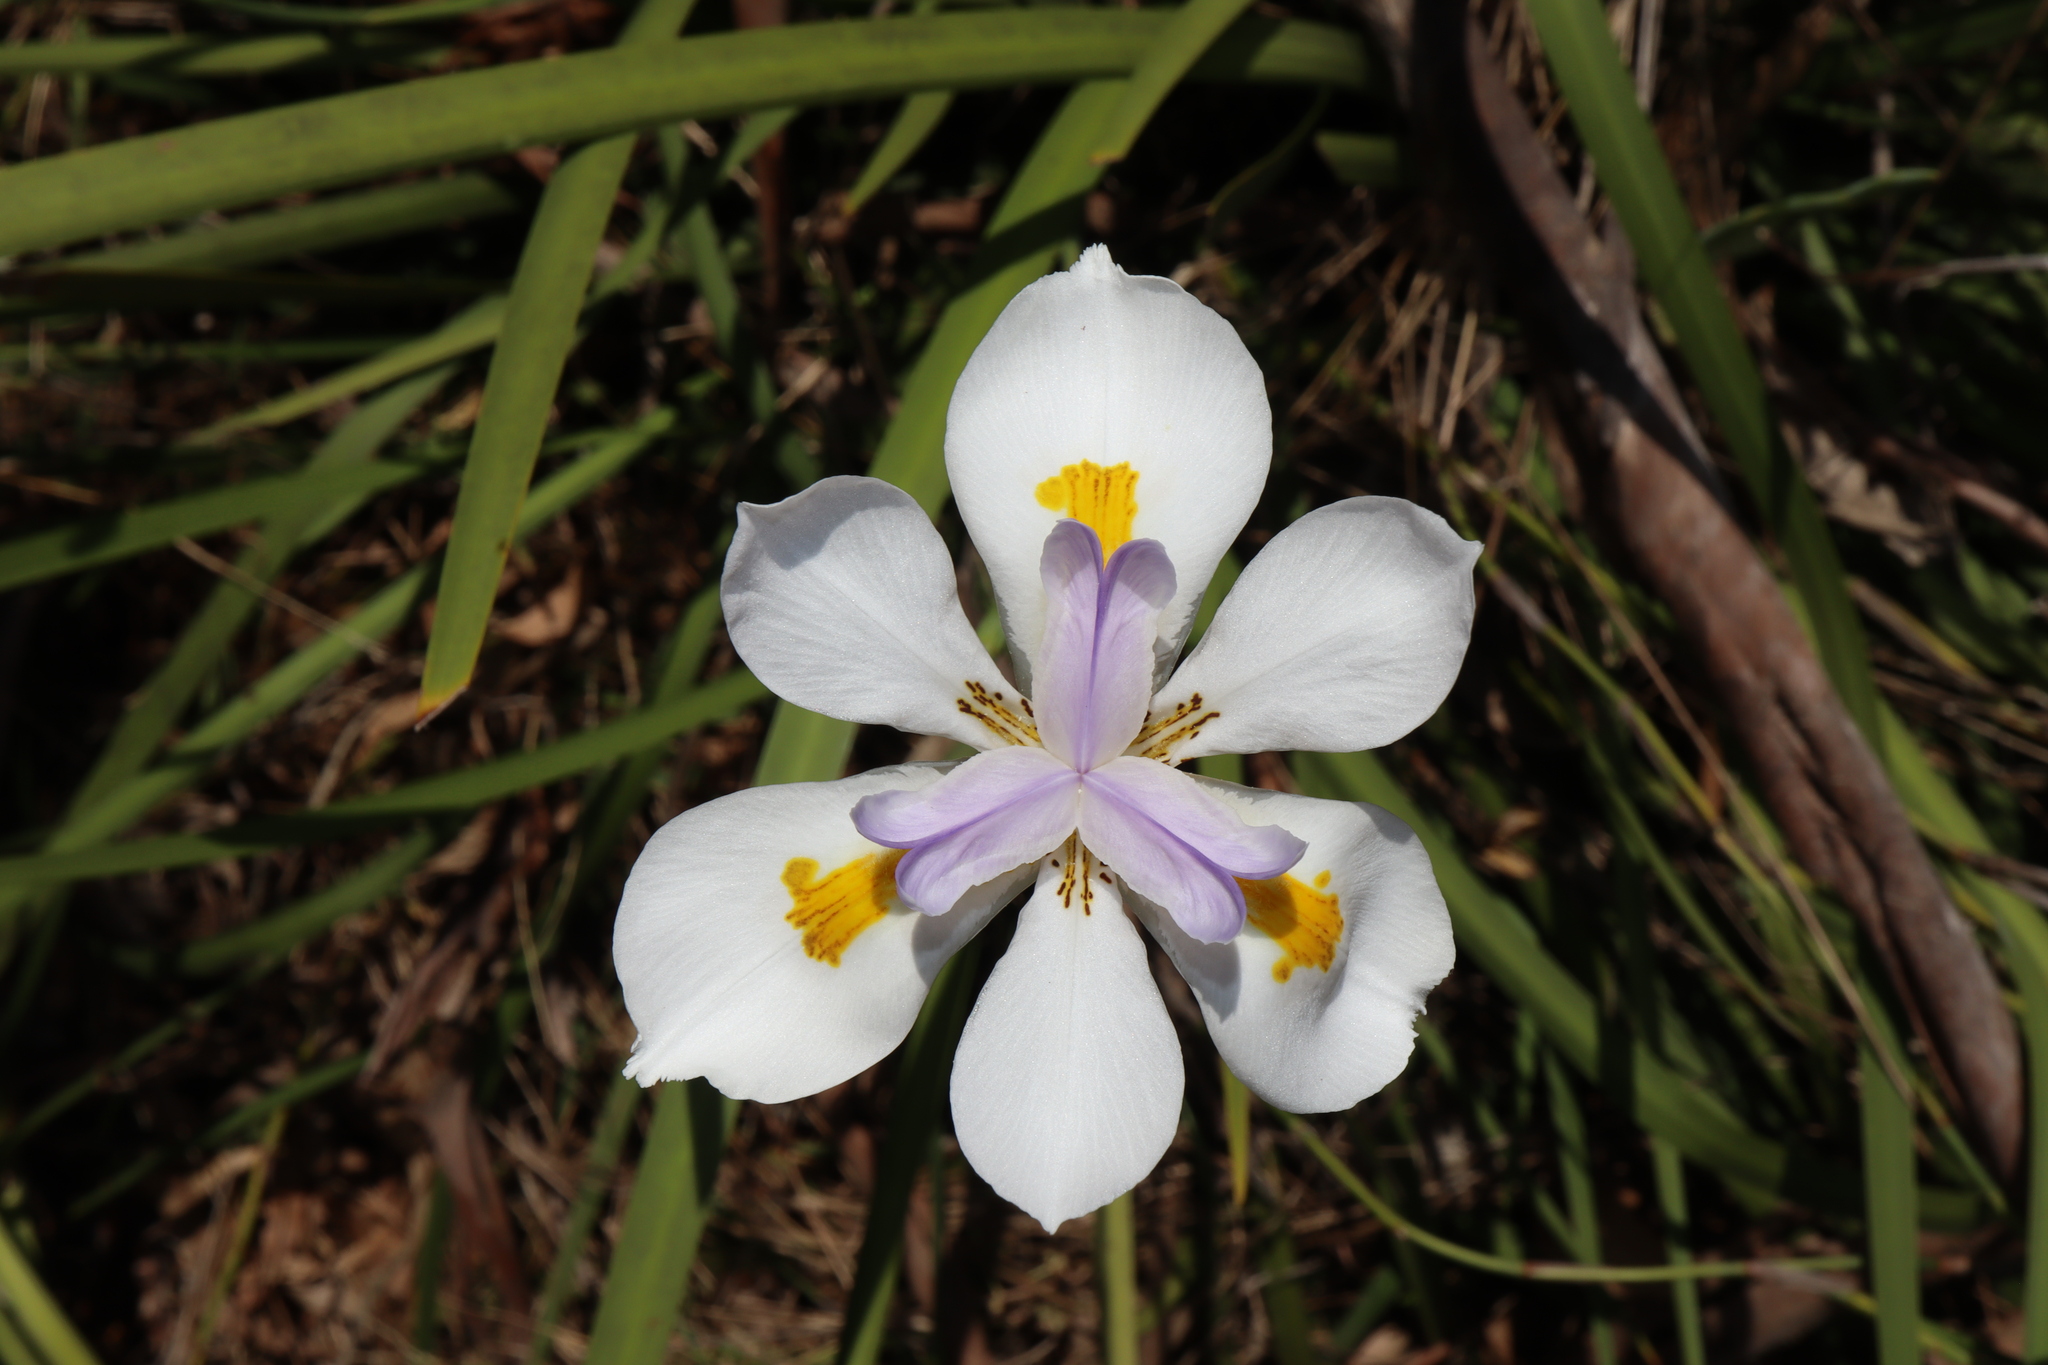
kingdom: Plantae
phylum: Tracheophyta
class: Liliopsida
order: Asparagales
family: Iridaceae
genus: Dietes
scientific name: Dietes grandiflora
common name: Wild iris
